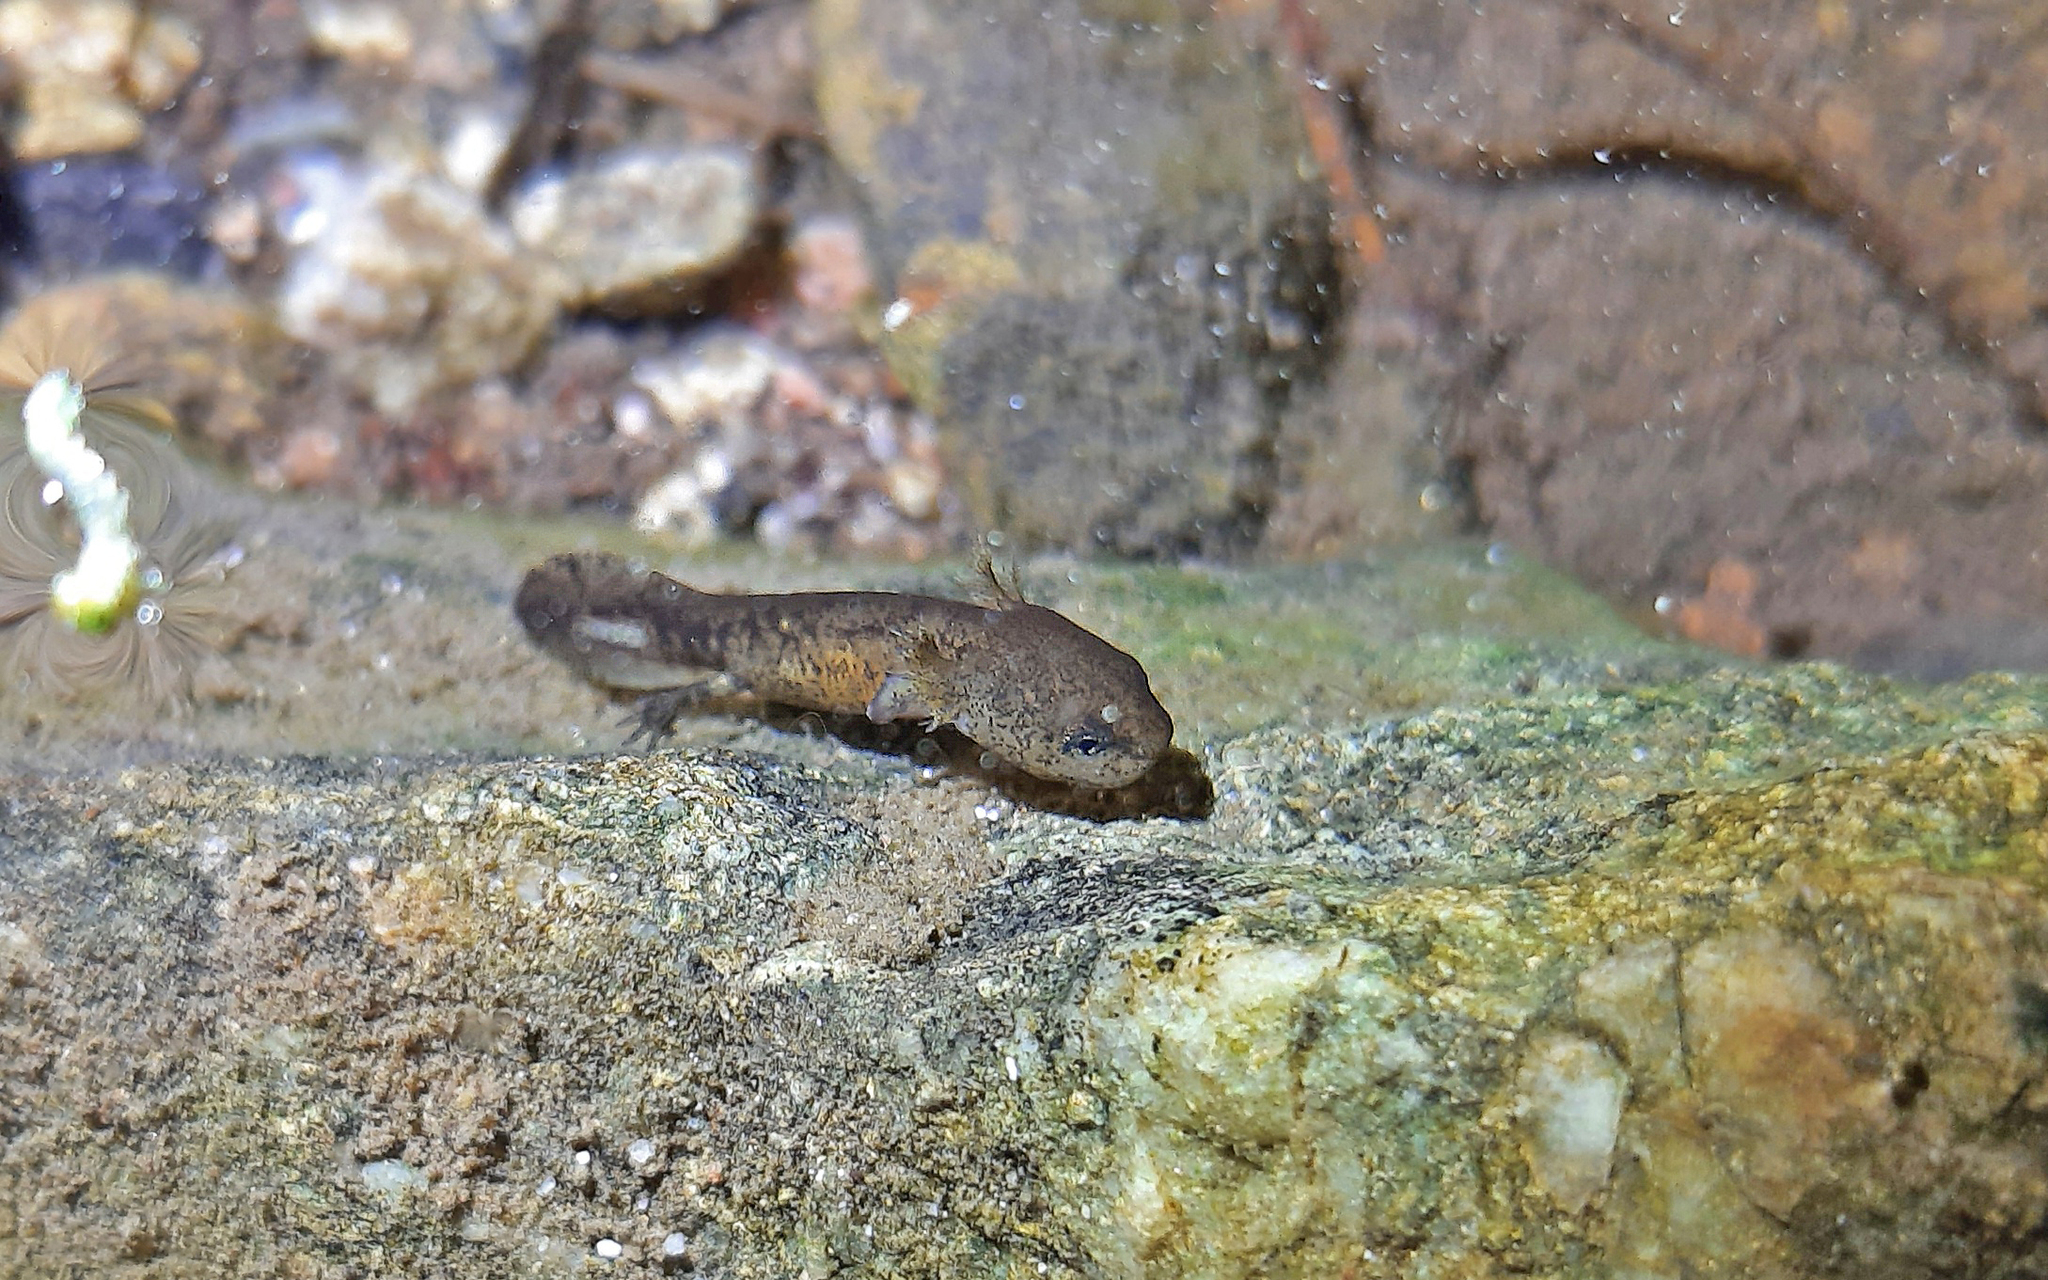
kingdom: Animalia
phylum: Chordata
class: Amphibia
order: Caudata
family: Salamandridae
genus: Salamandra
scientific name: Salamandra corsica
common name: Corsican fire salamander
